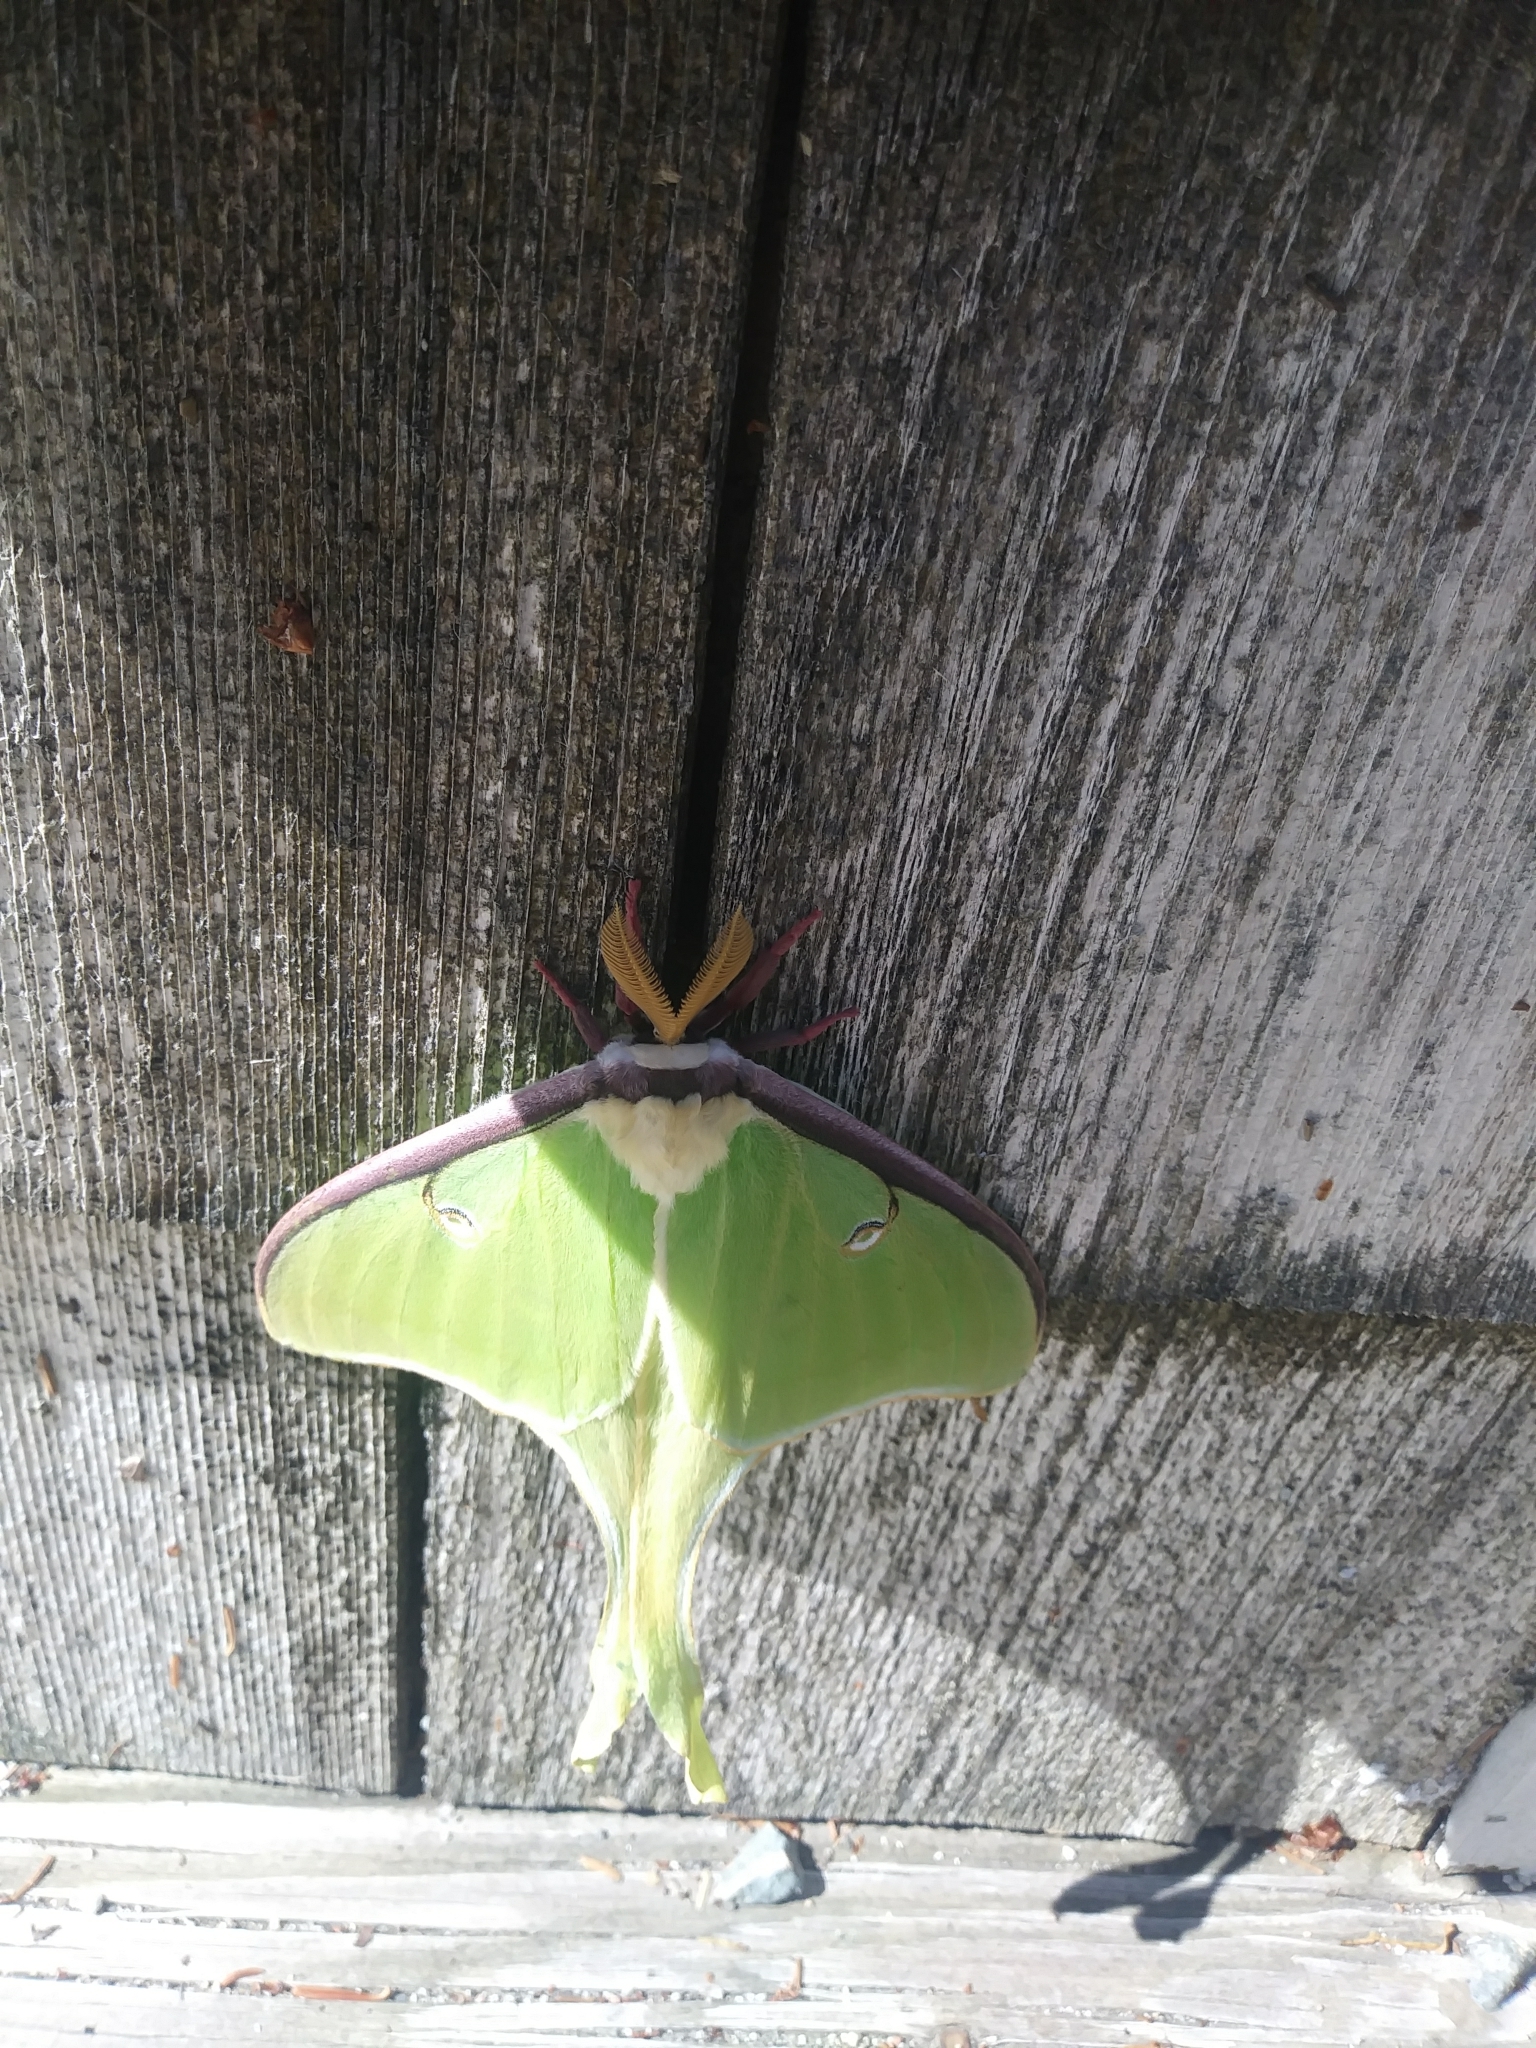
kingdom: Animalia
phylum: Arthropoda
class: Insecta
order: Lepidoptera
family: Saturniidae
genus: Actias
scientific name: Actias luna
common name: Luna moth
